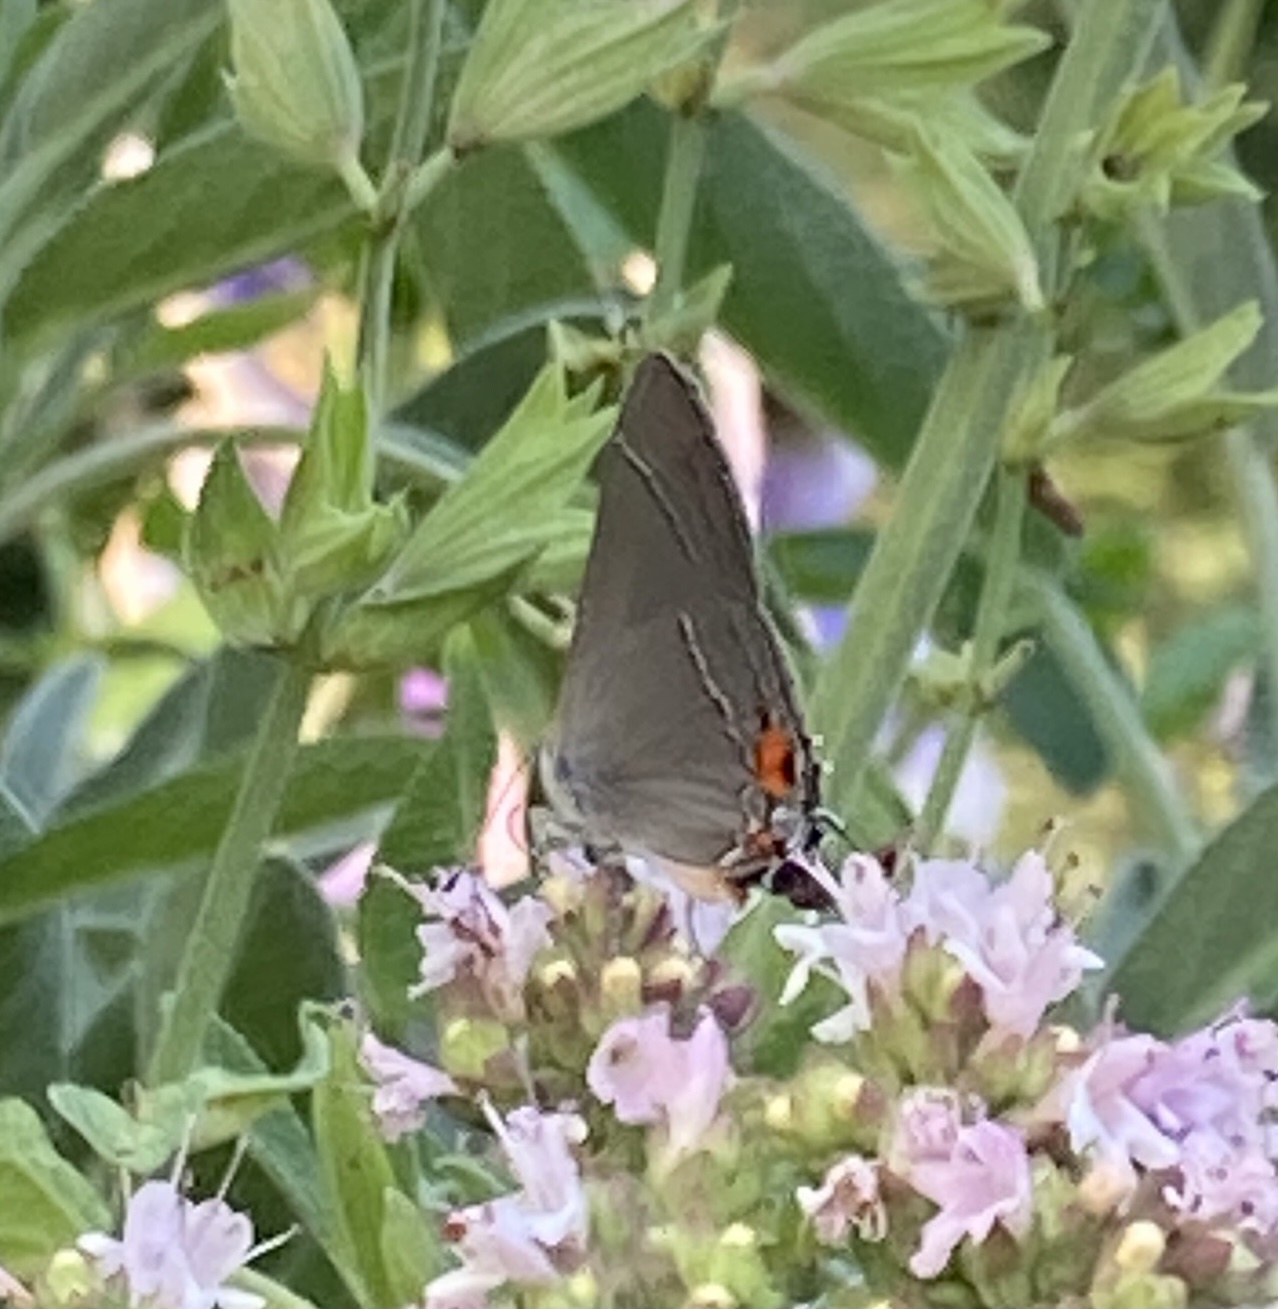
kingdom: Animalia
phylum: Arthropoda
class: Insecta
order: Lepidoptera
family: Lycaenidae
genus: Strymon
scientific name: Strymon melinus
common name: Gray hairstreak
